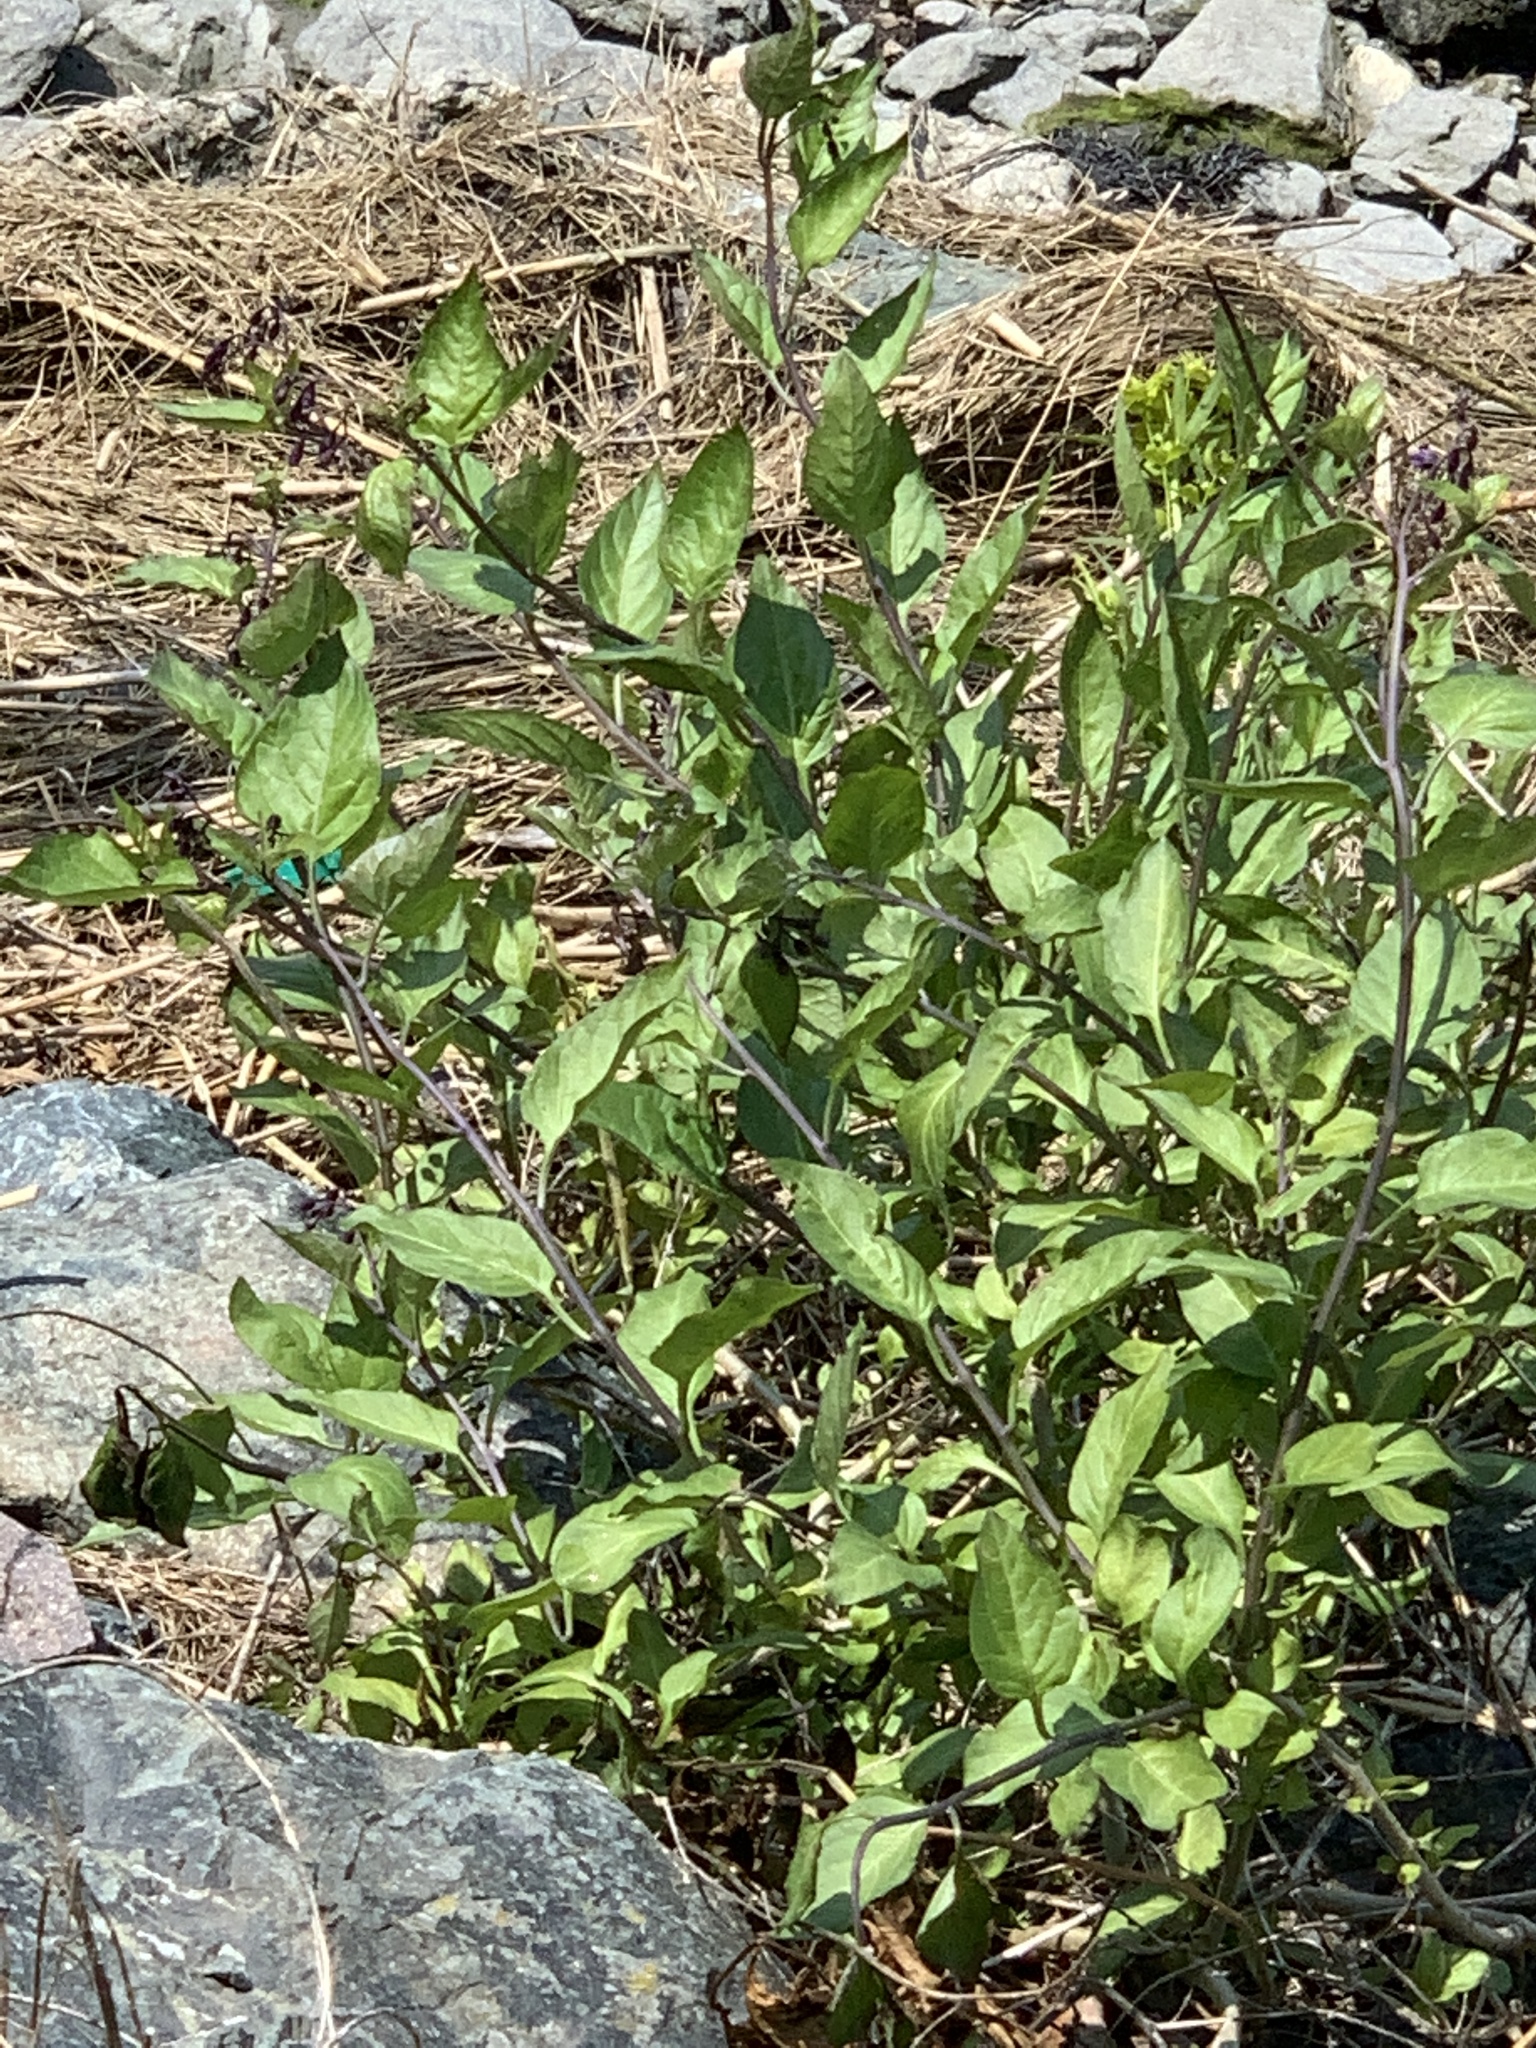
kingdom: Plantae
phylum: Tracheophyta
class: Magnoliopsida
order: Solanales
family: Solanaceae
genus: Solanum
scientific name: Solanum dulcamara
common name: Climbing nightshade
